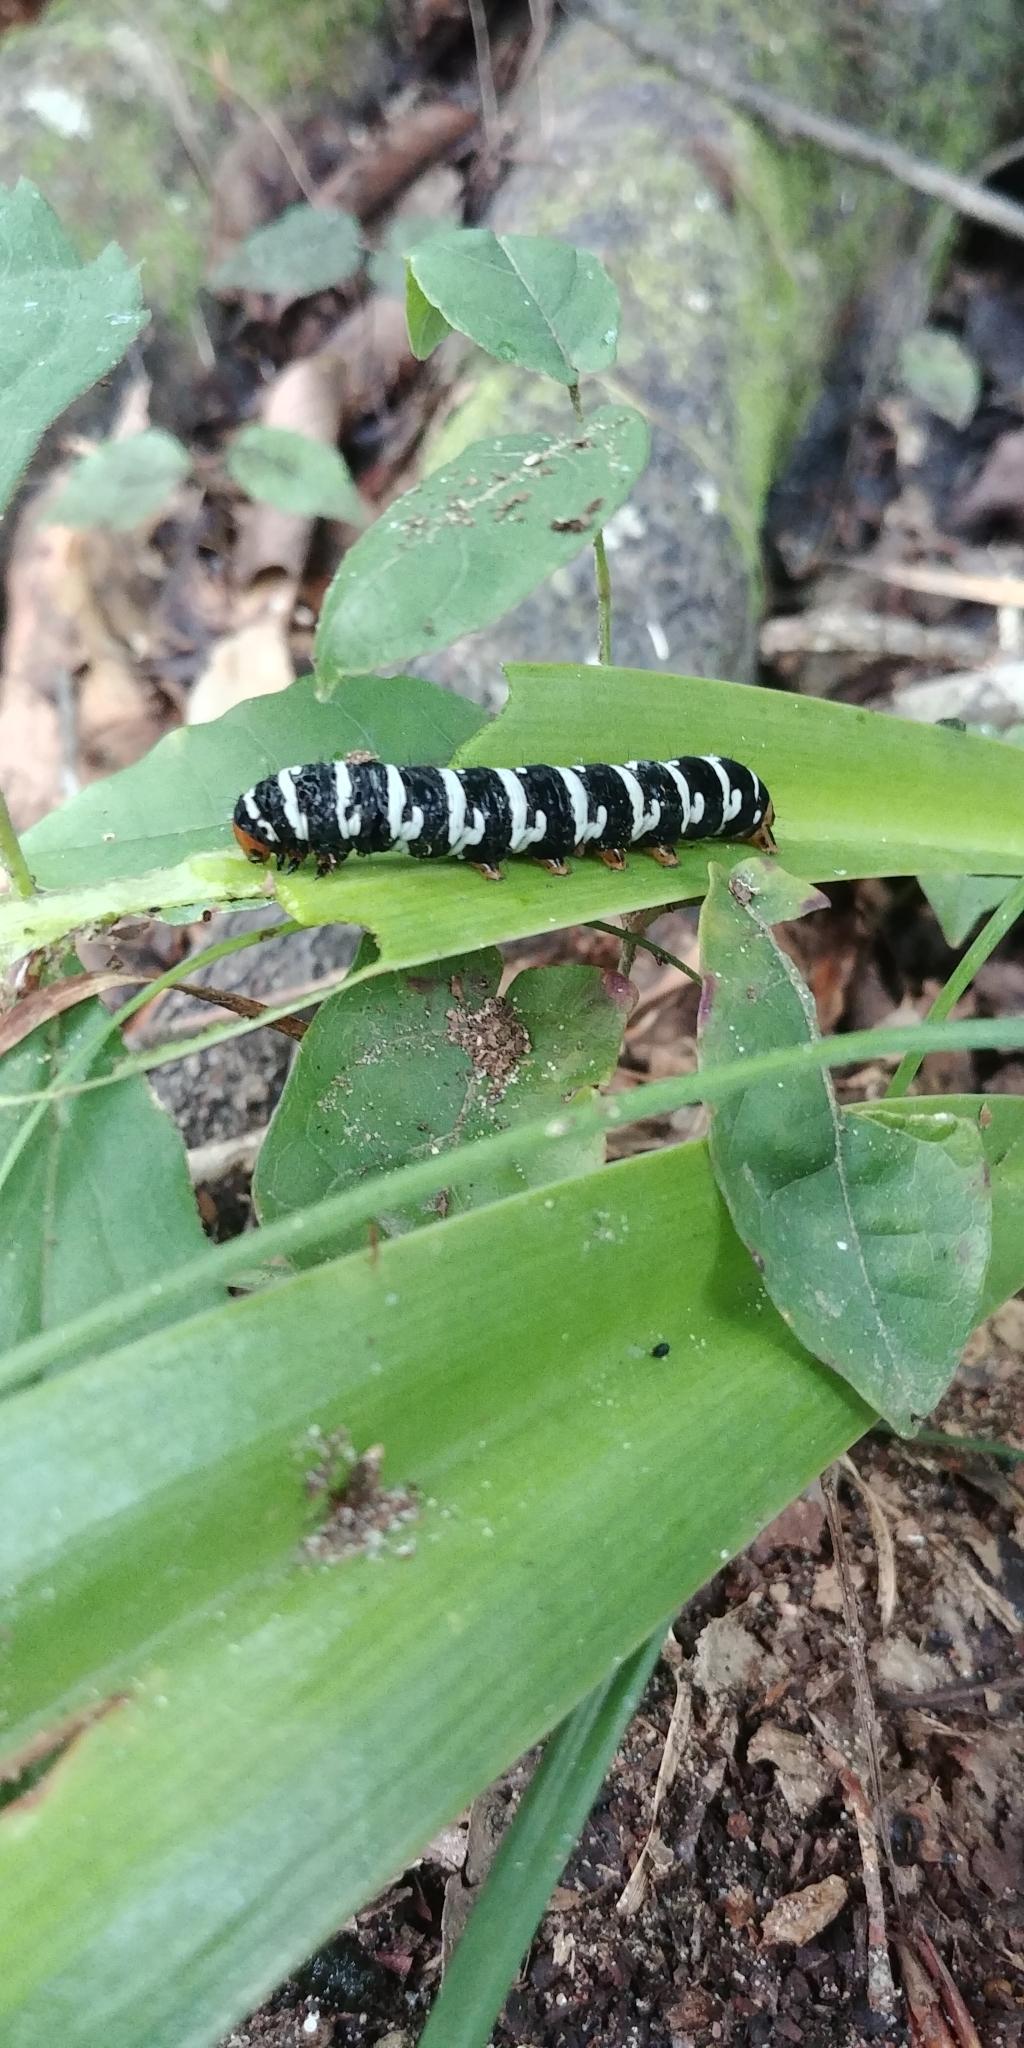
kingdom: Animalia
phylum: Arthropoda
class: Insecta
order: Lepidoptera
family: Noctuidae
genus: Xanthopastis
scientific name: Xanthopastis regnatrix
